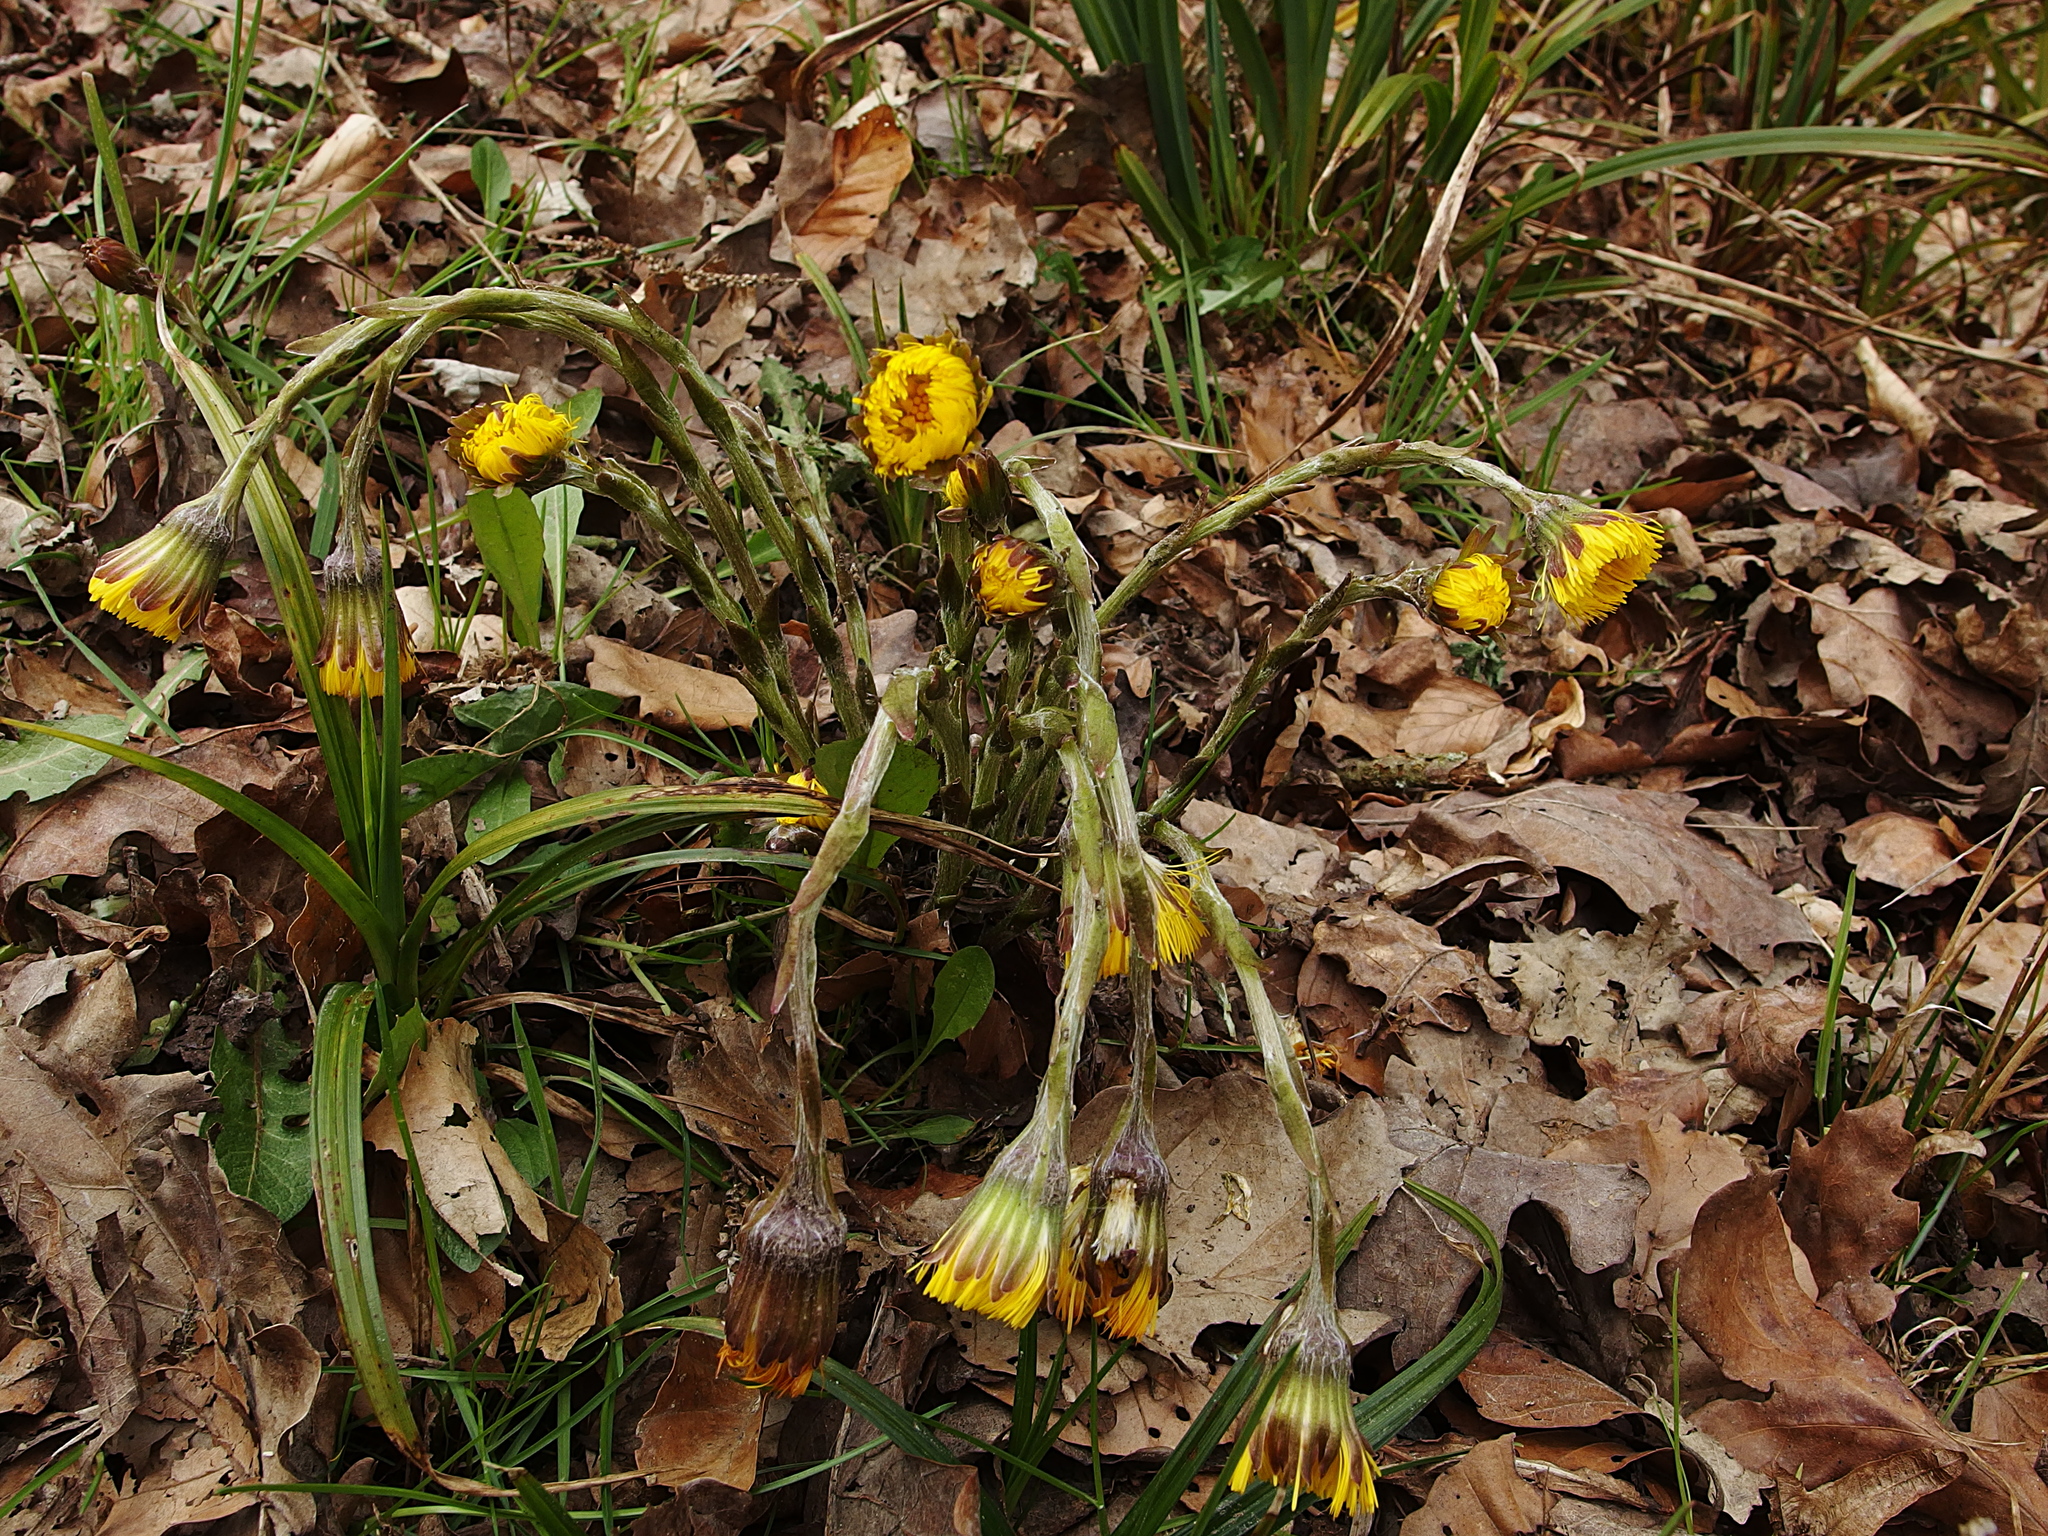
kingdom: Plantae
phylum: Tracheophyta
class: Magnoliopsida
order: Asterales
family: Asteraceae
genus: Tussilago
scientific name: Tussilago farfara
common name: Coltsfoot
